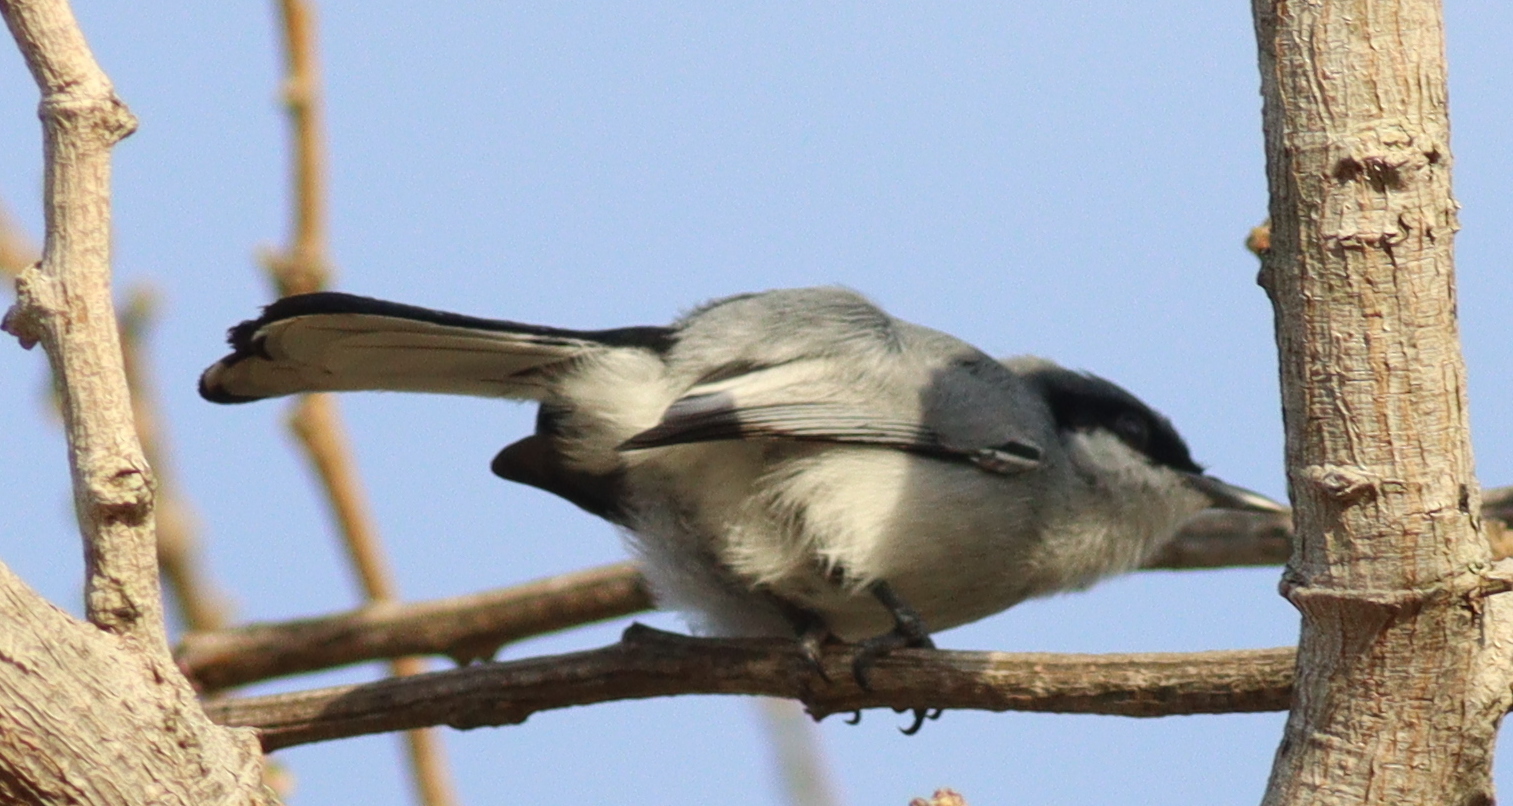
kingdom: Animalia
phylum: Chordata
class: Aves
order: Passeriformes
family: Polioptilidae
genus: Polioptila
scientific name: Polioptila dumicola
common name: Masked gnatcatcher
